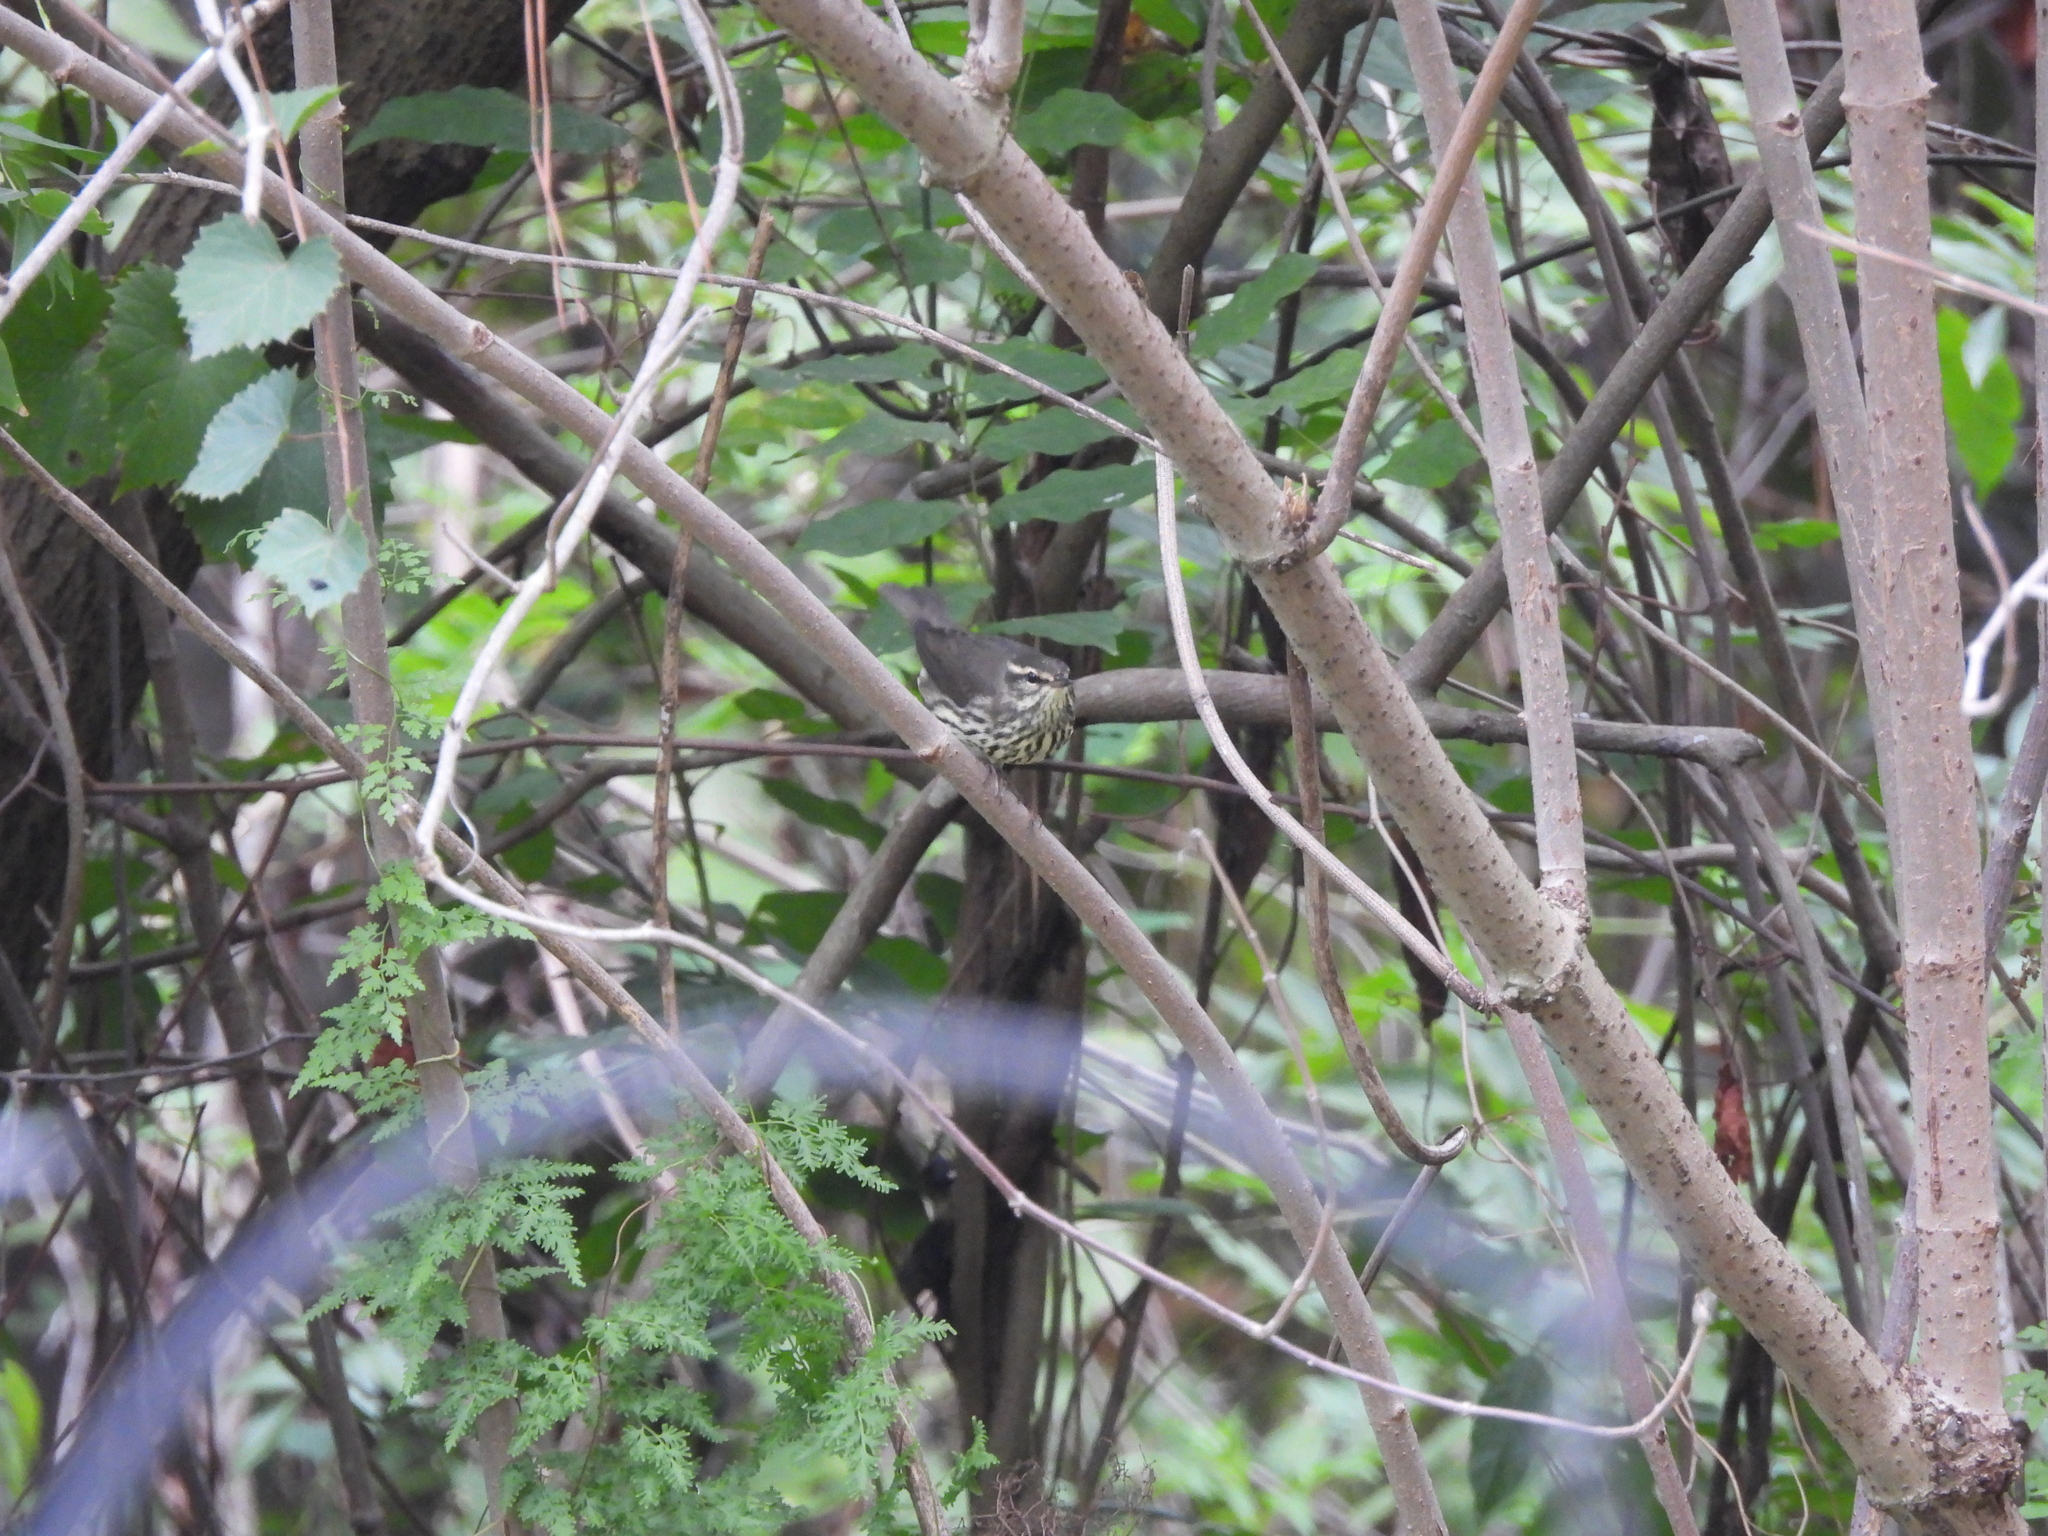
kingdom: Animalia
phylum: Chordata
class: Aves
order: Passeriformes
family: Parulidae
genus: Parkesia
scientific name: Parkesia noveboracensis
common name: Northern waterthrush
